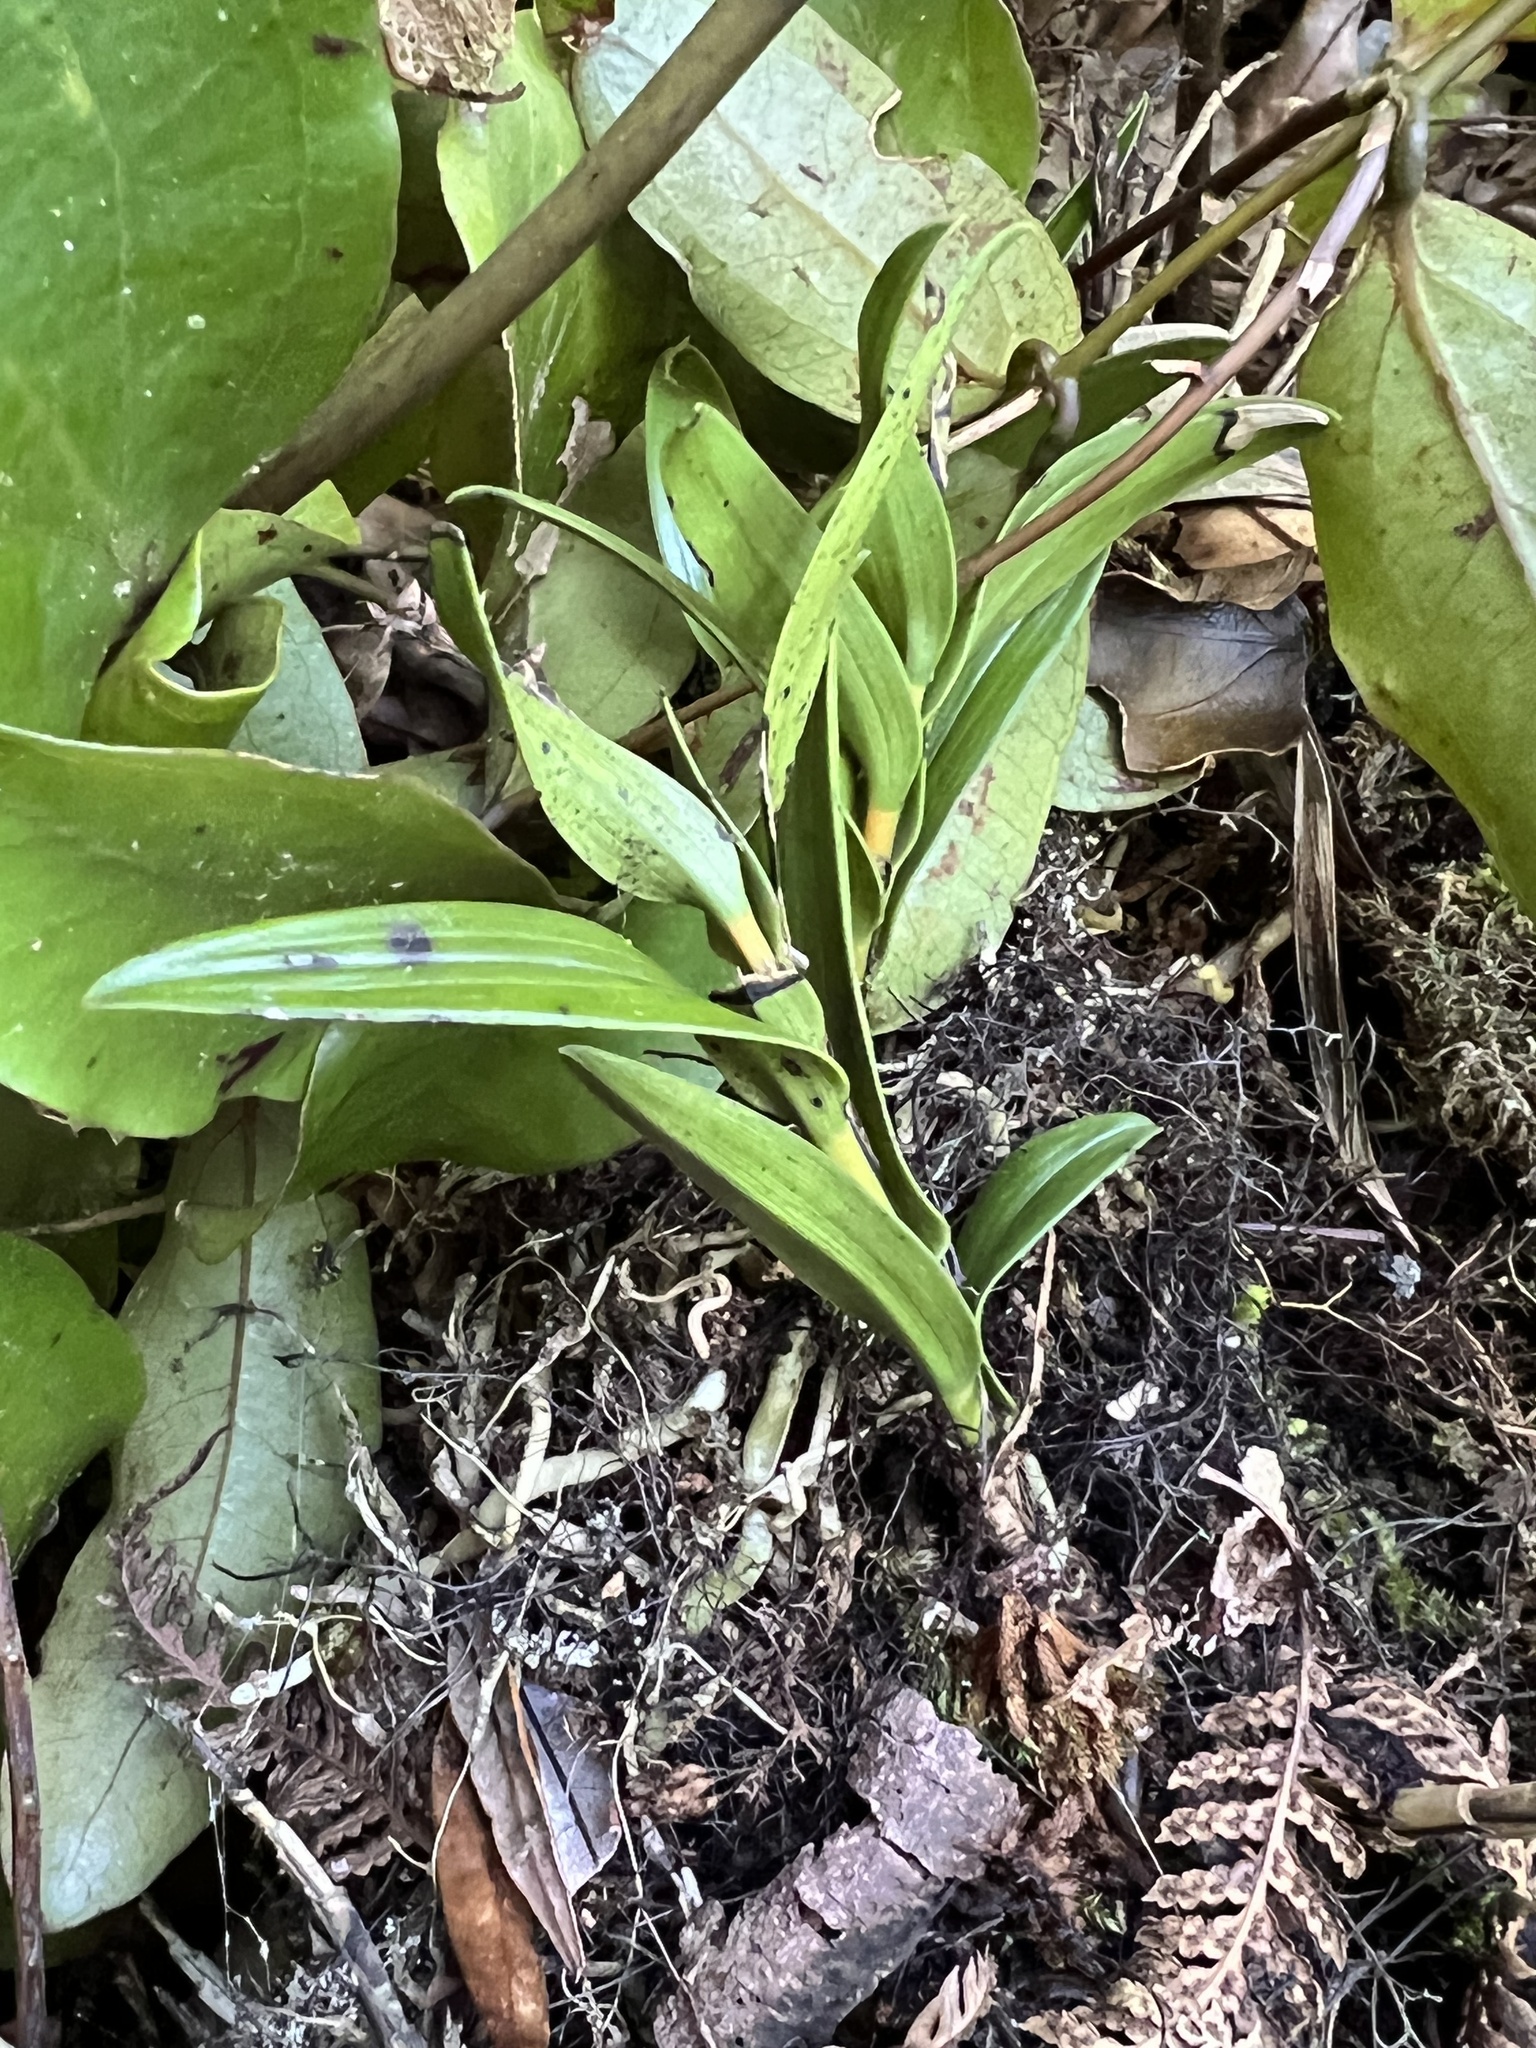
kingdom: Plantae
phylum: Tracheophyta
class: Liliopsida
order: Asparagales
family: Orchidaceae
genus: Earina
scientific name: Earina autumnalis
